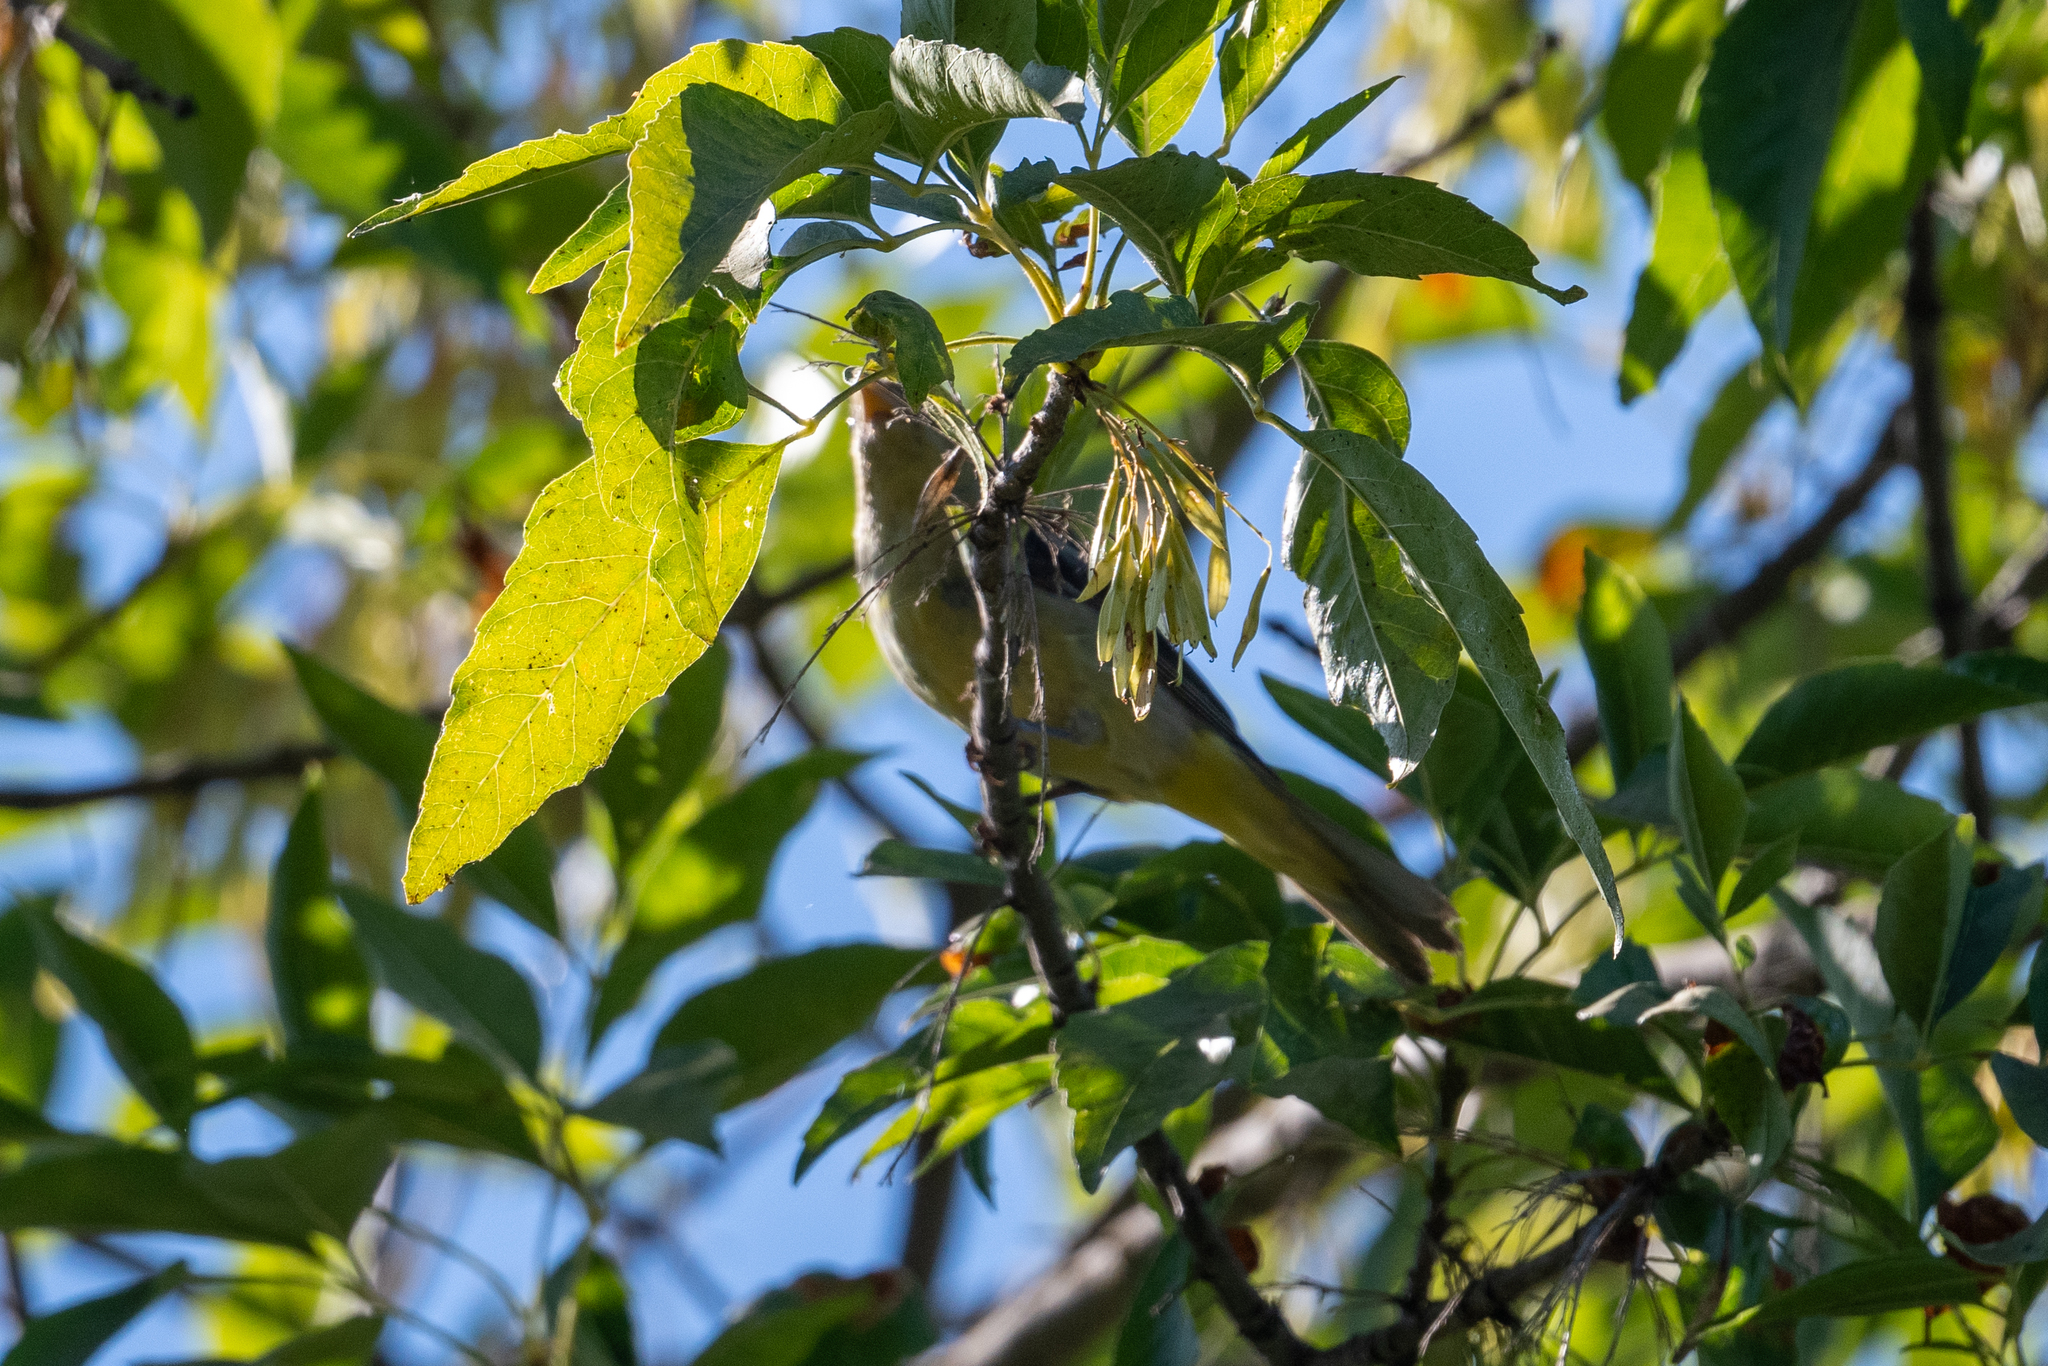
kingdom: Animalia
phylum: Chordata
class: Aves
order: Passeriformes
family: Cardinalidae
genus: Piranga
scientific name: Piranga ludoviciana
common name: Western tanager
